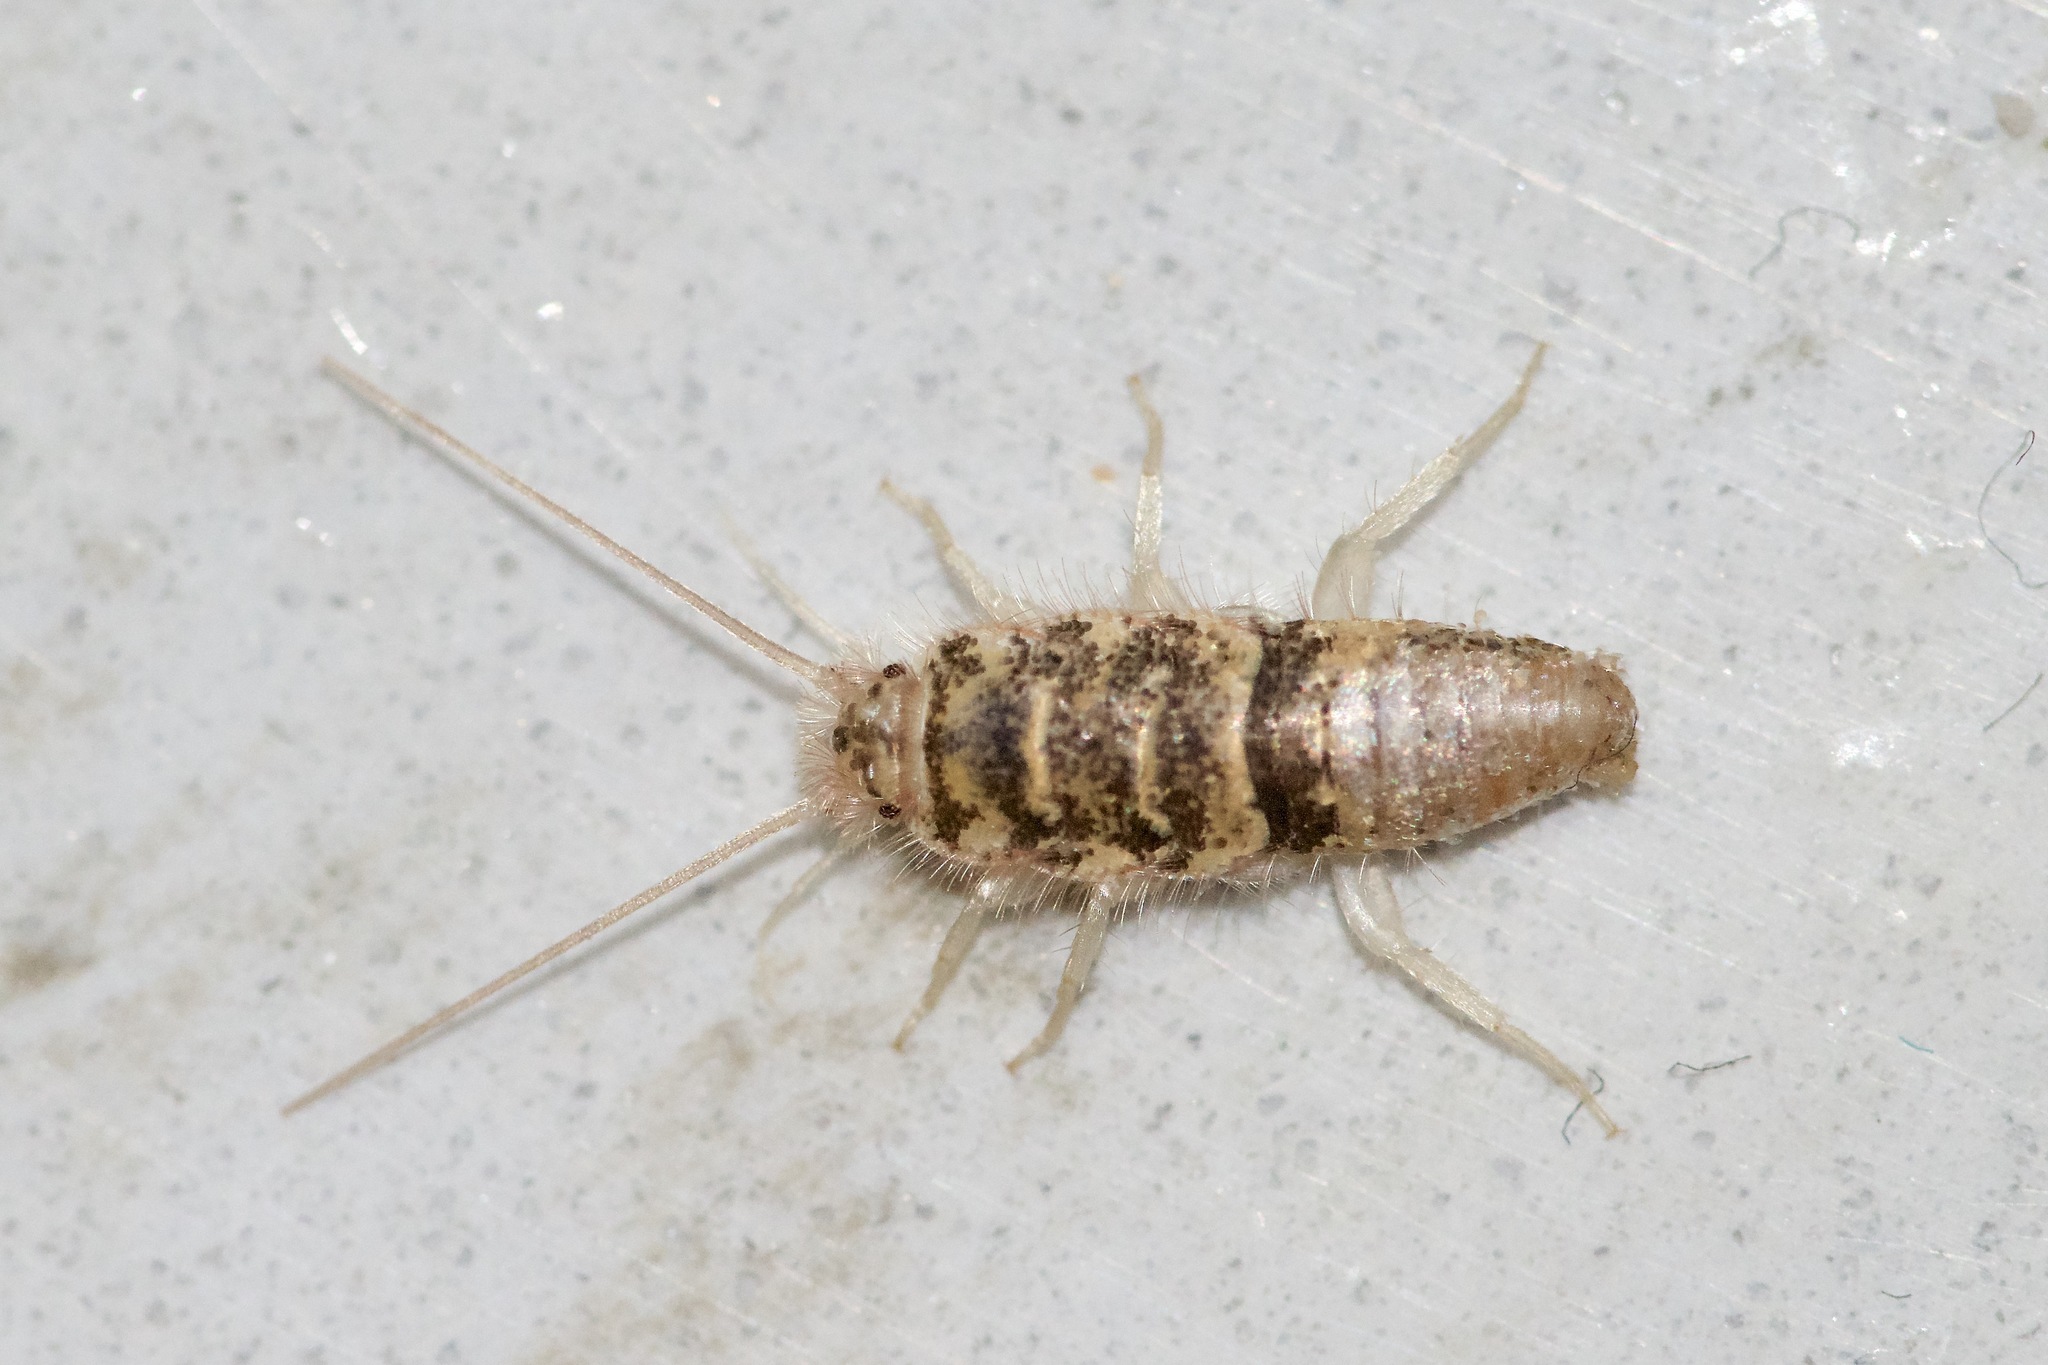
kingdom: Animalia
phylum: Arthropoda
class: Insecta
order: Zygentoma
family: Lepismatidae
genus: Thermobia
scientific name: Thermobia domestica
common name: Firebrat
